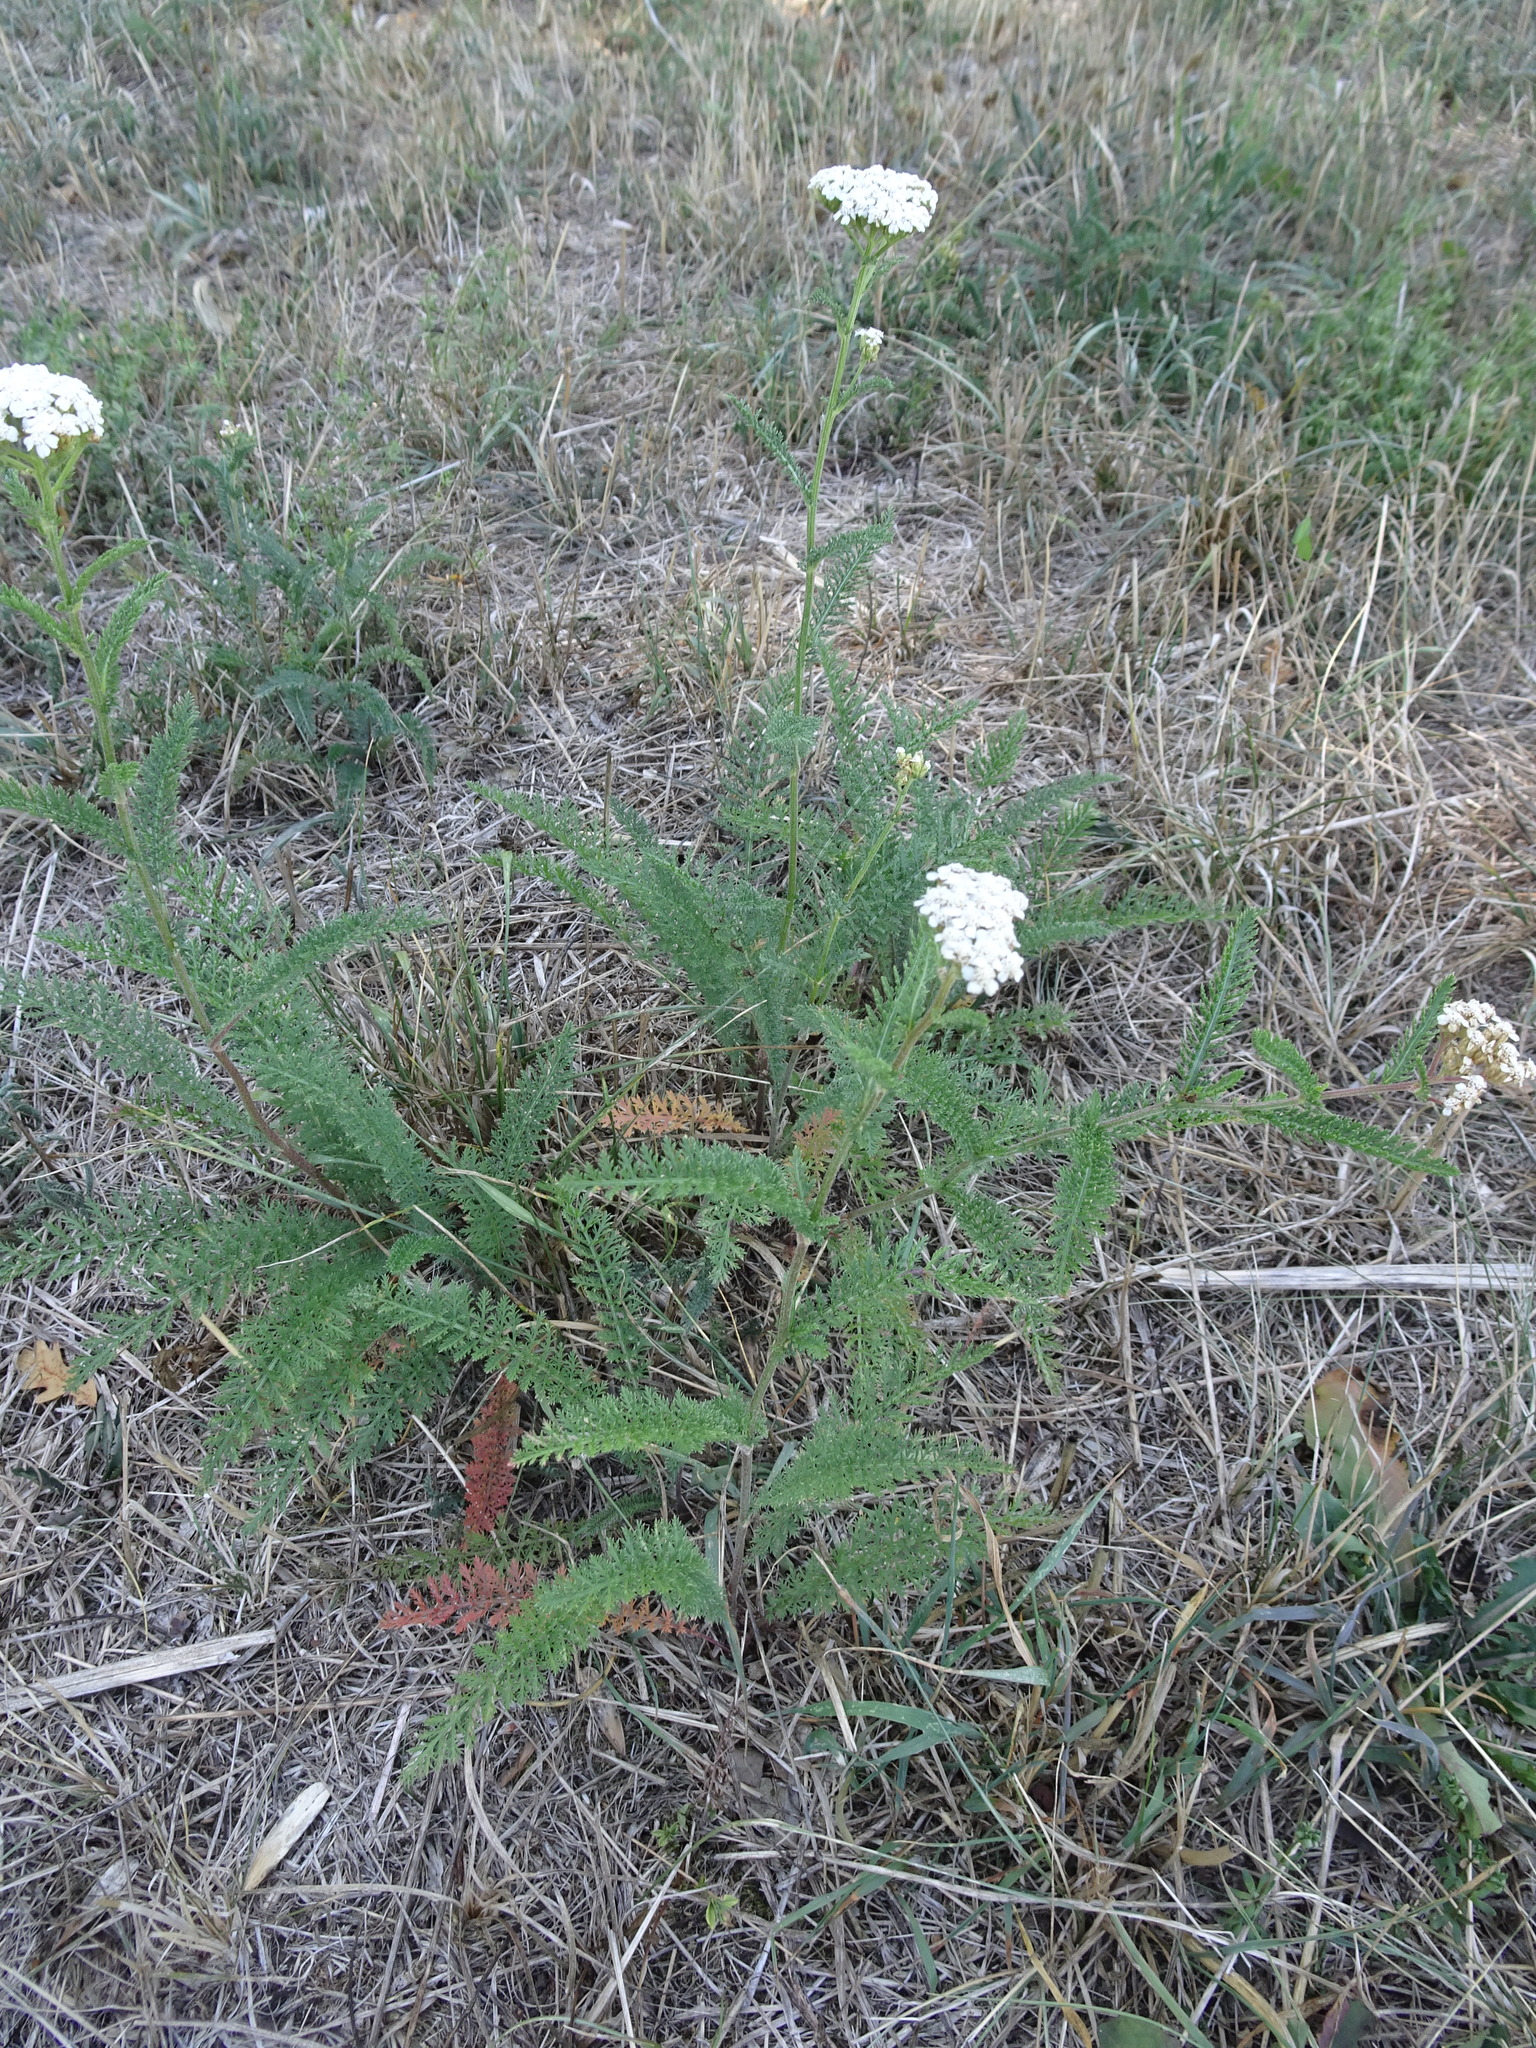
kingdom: Plantae
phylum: Tracheophyta
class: Magnoliopsida
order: Asterales
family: Asteraceae
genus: Achillea
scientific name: Achillea millefolium
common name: Yarrow
